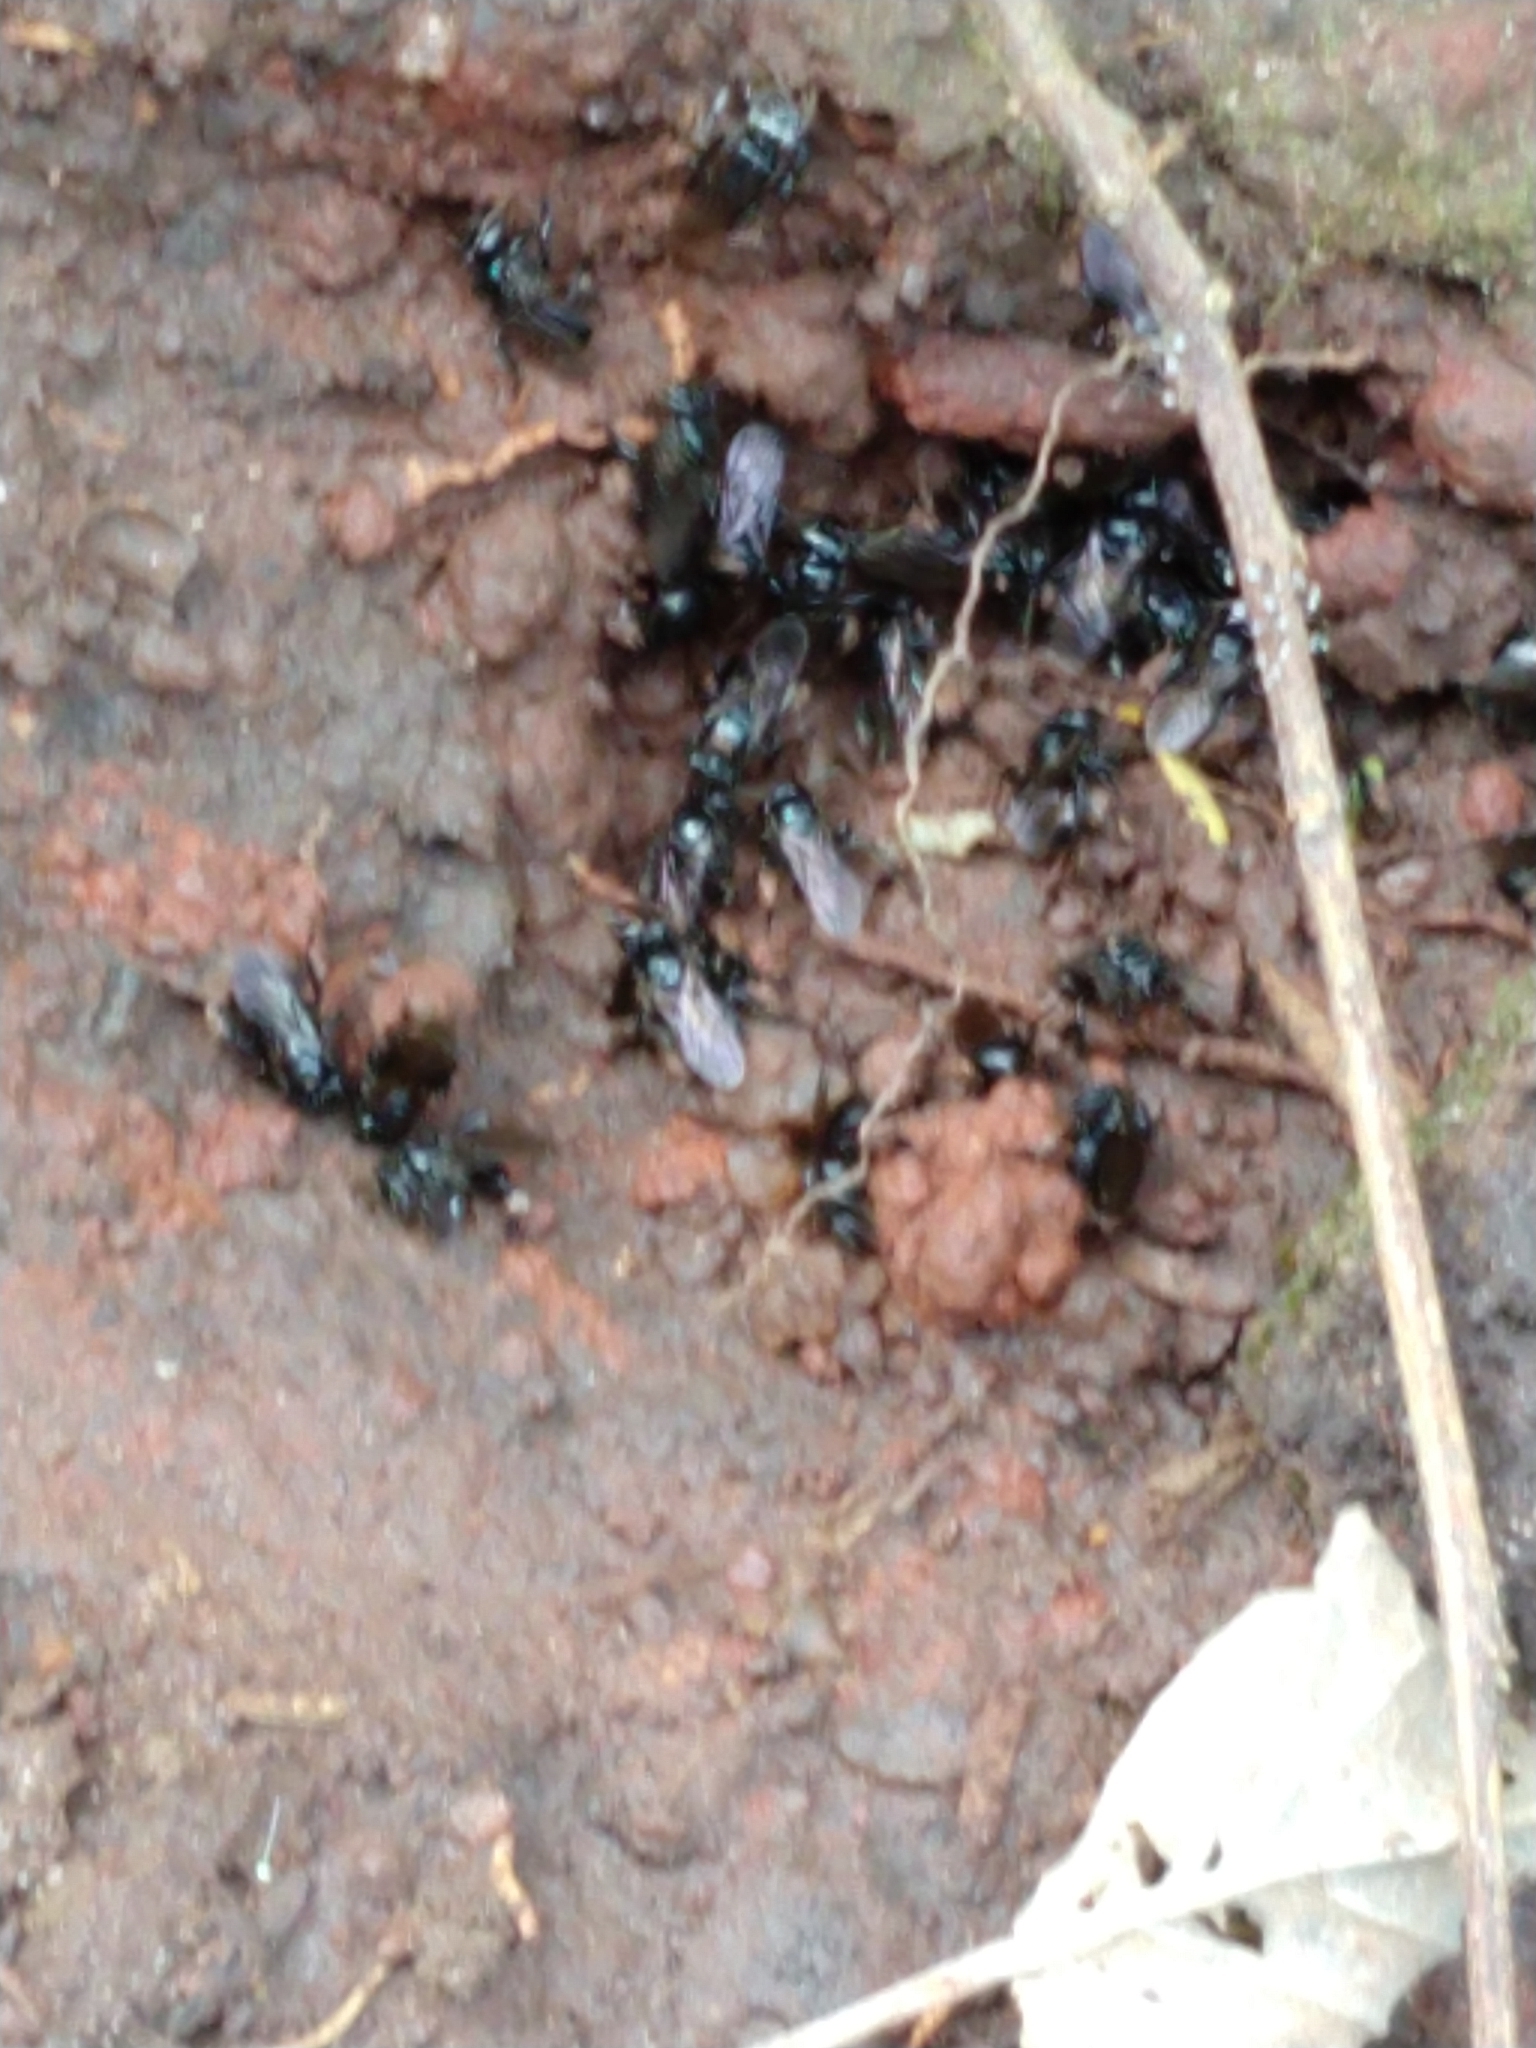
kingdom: Animalia
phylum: Arthropoda
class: Insecta
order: Hymenoptera
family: Apidae
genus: Partamona
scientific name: Partamona helleri
